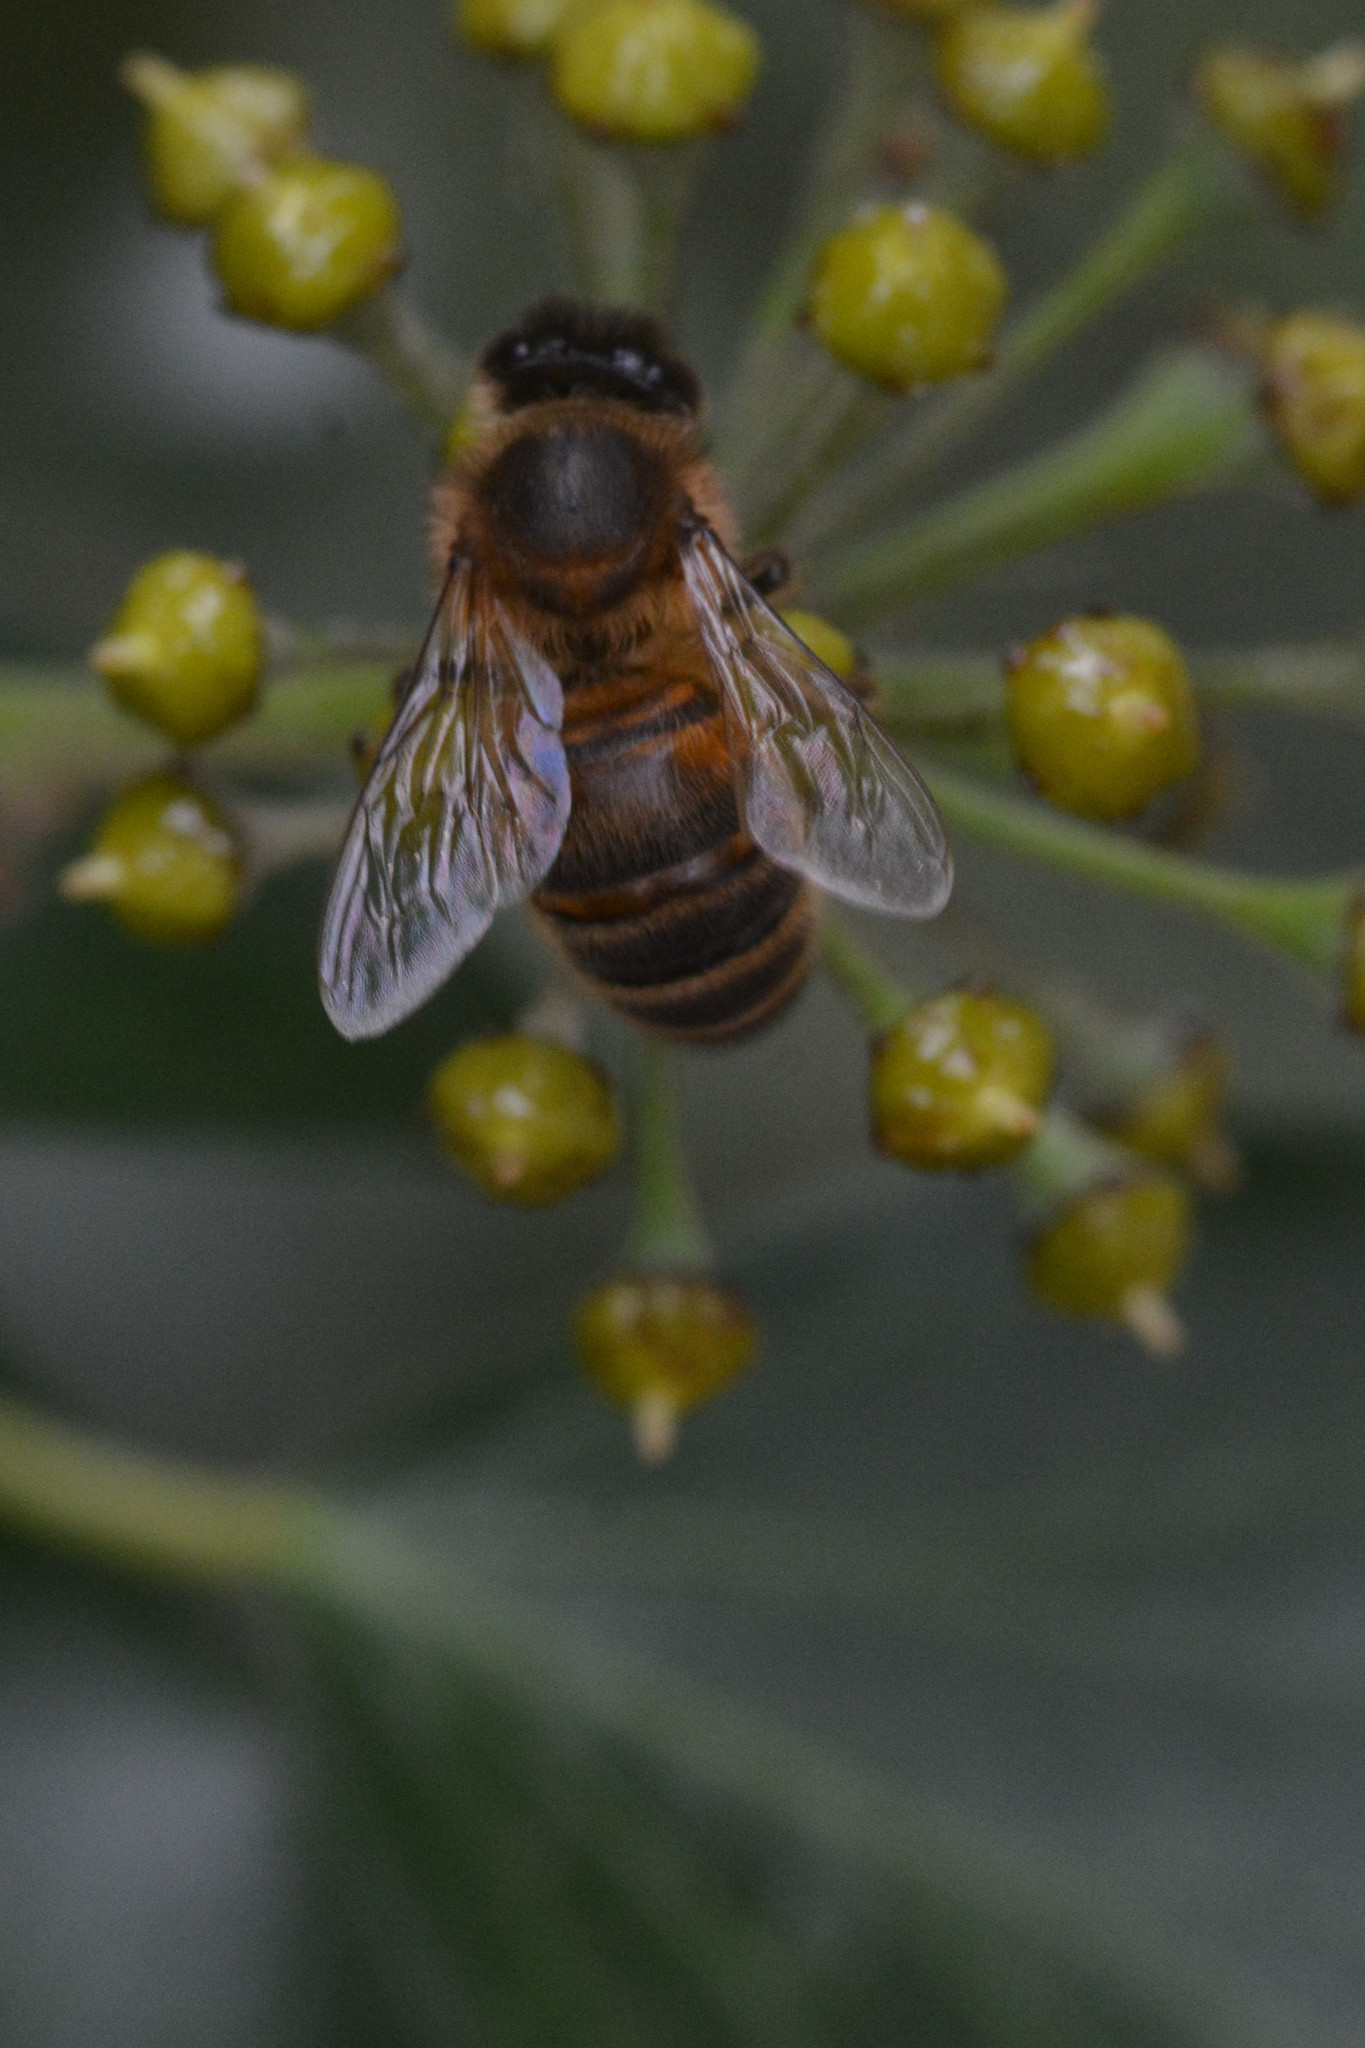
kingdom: Animalia
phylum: Arthropoda
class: Insecta
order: Hymenoptera
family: Apidae
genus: Apis
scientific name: Apis mellifera
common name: Honey bee
